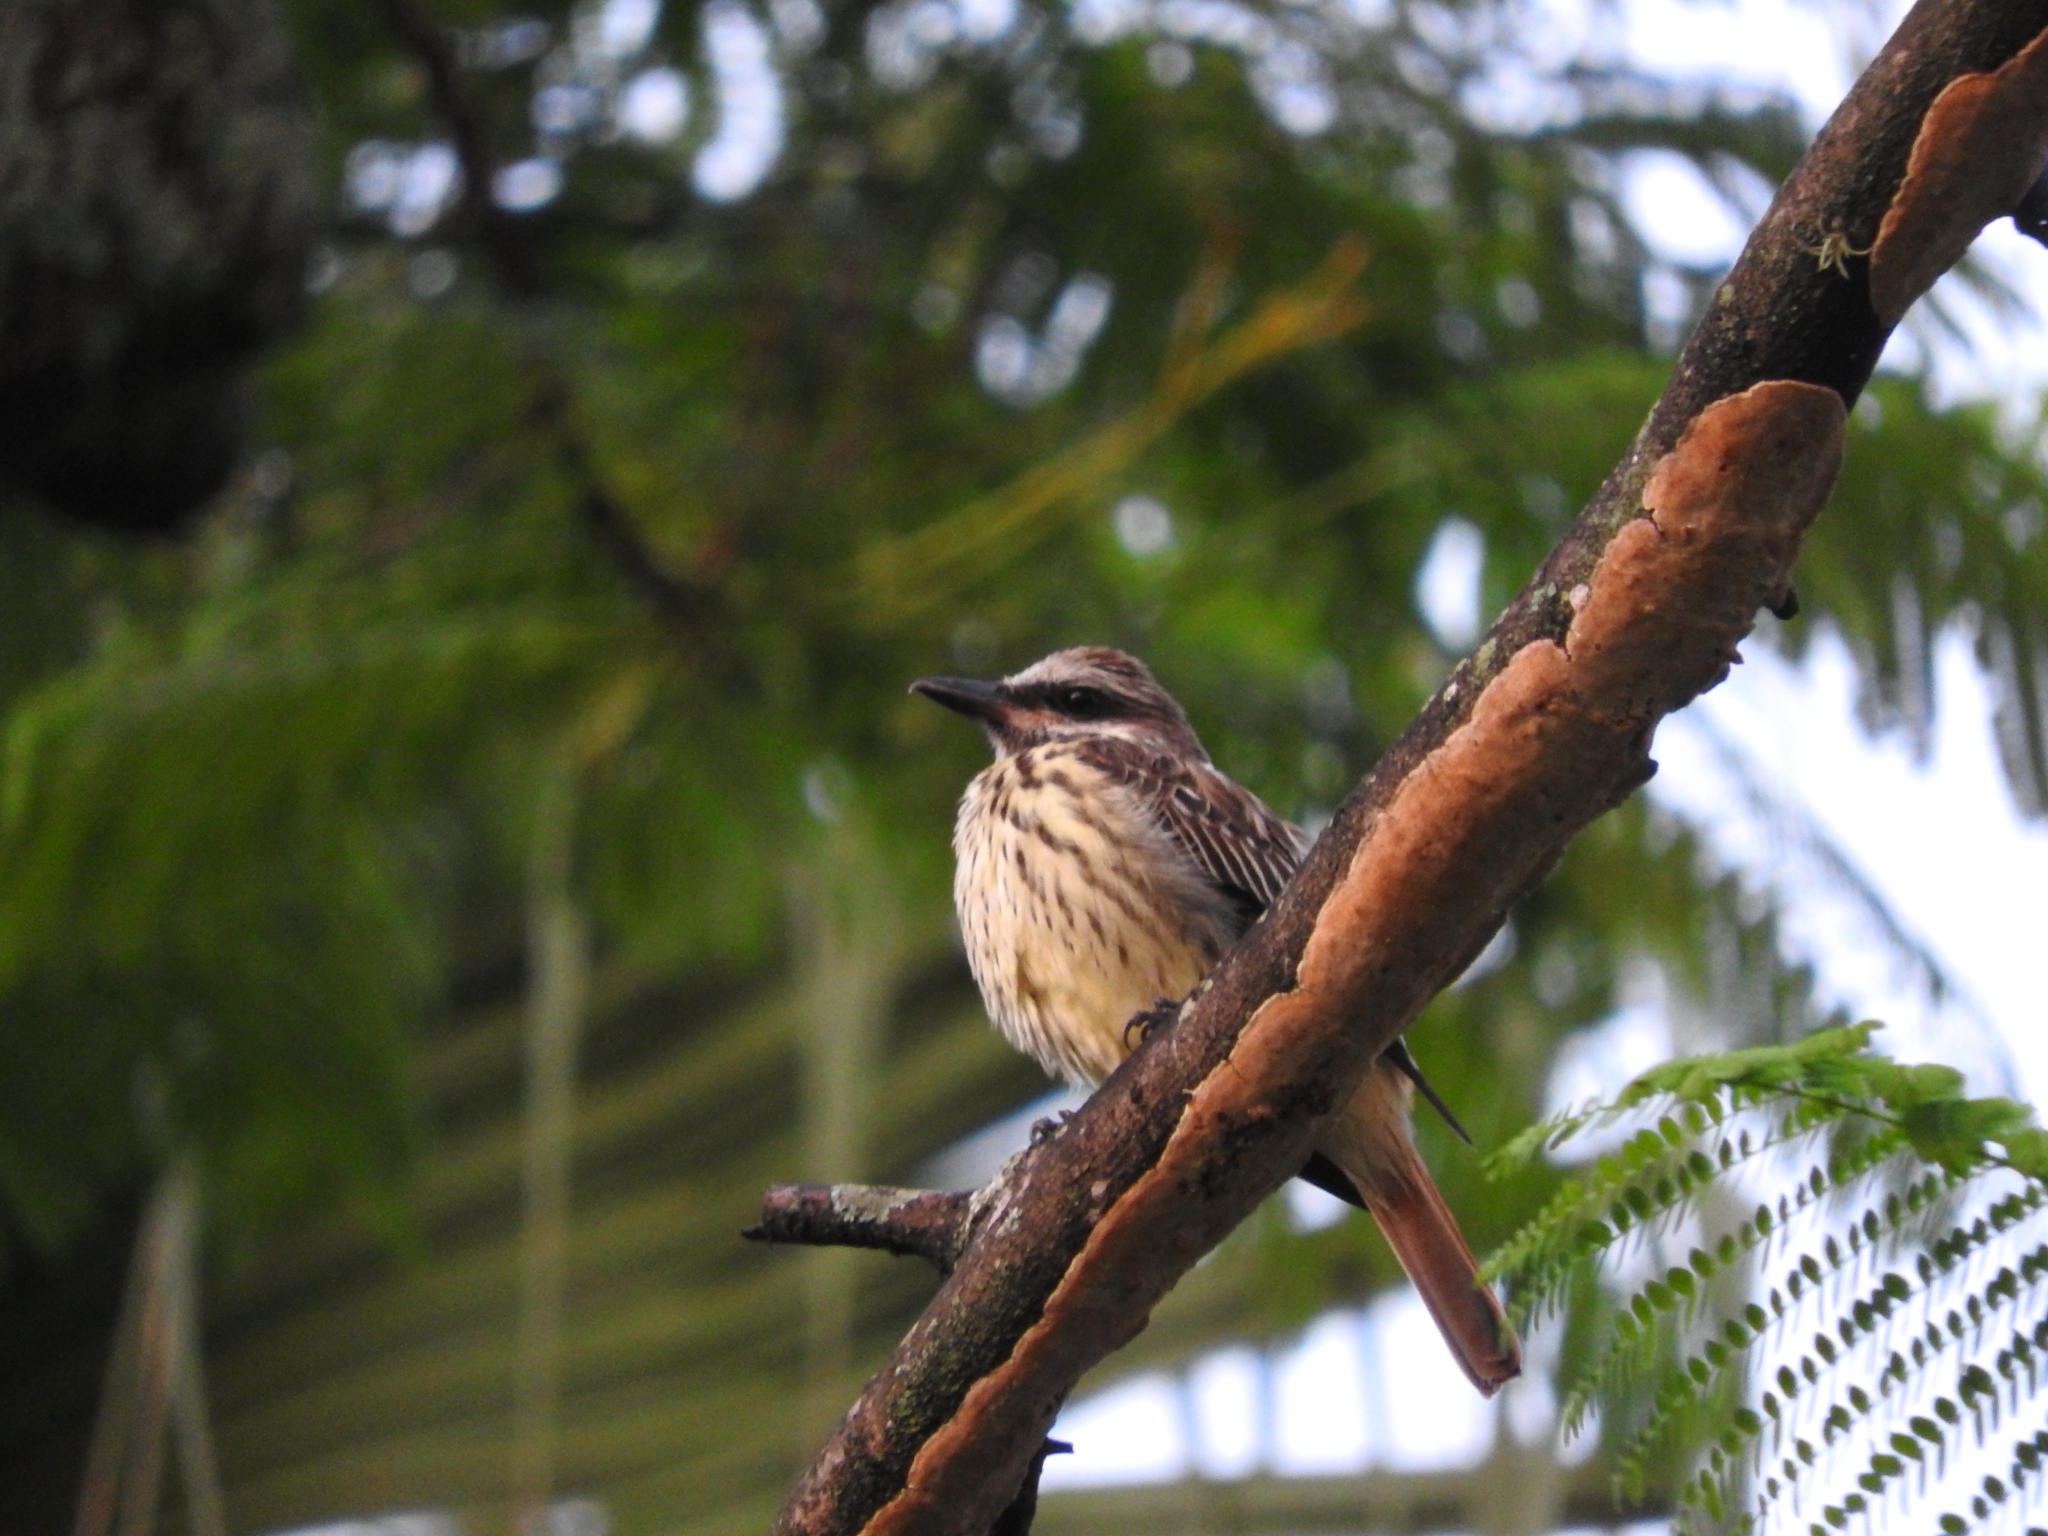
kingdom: Animalia
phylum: Chordata
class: Aves
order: Passeriformes
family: Tyrannidae
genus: Myiodynastes
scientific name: Myiodynastes luteiventris
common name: Sulphur-bellied flycatcher
